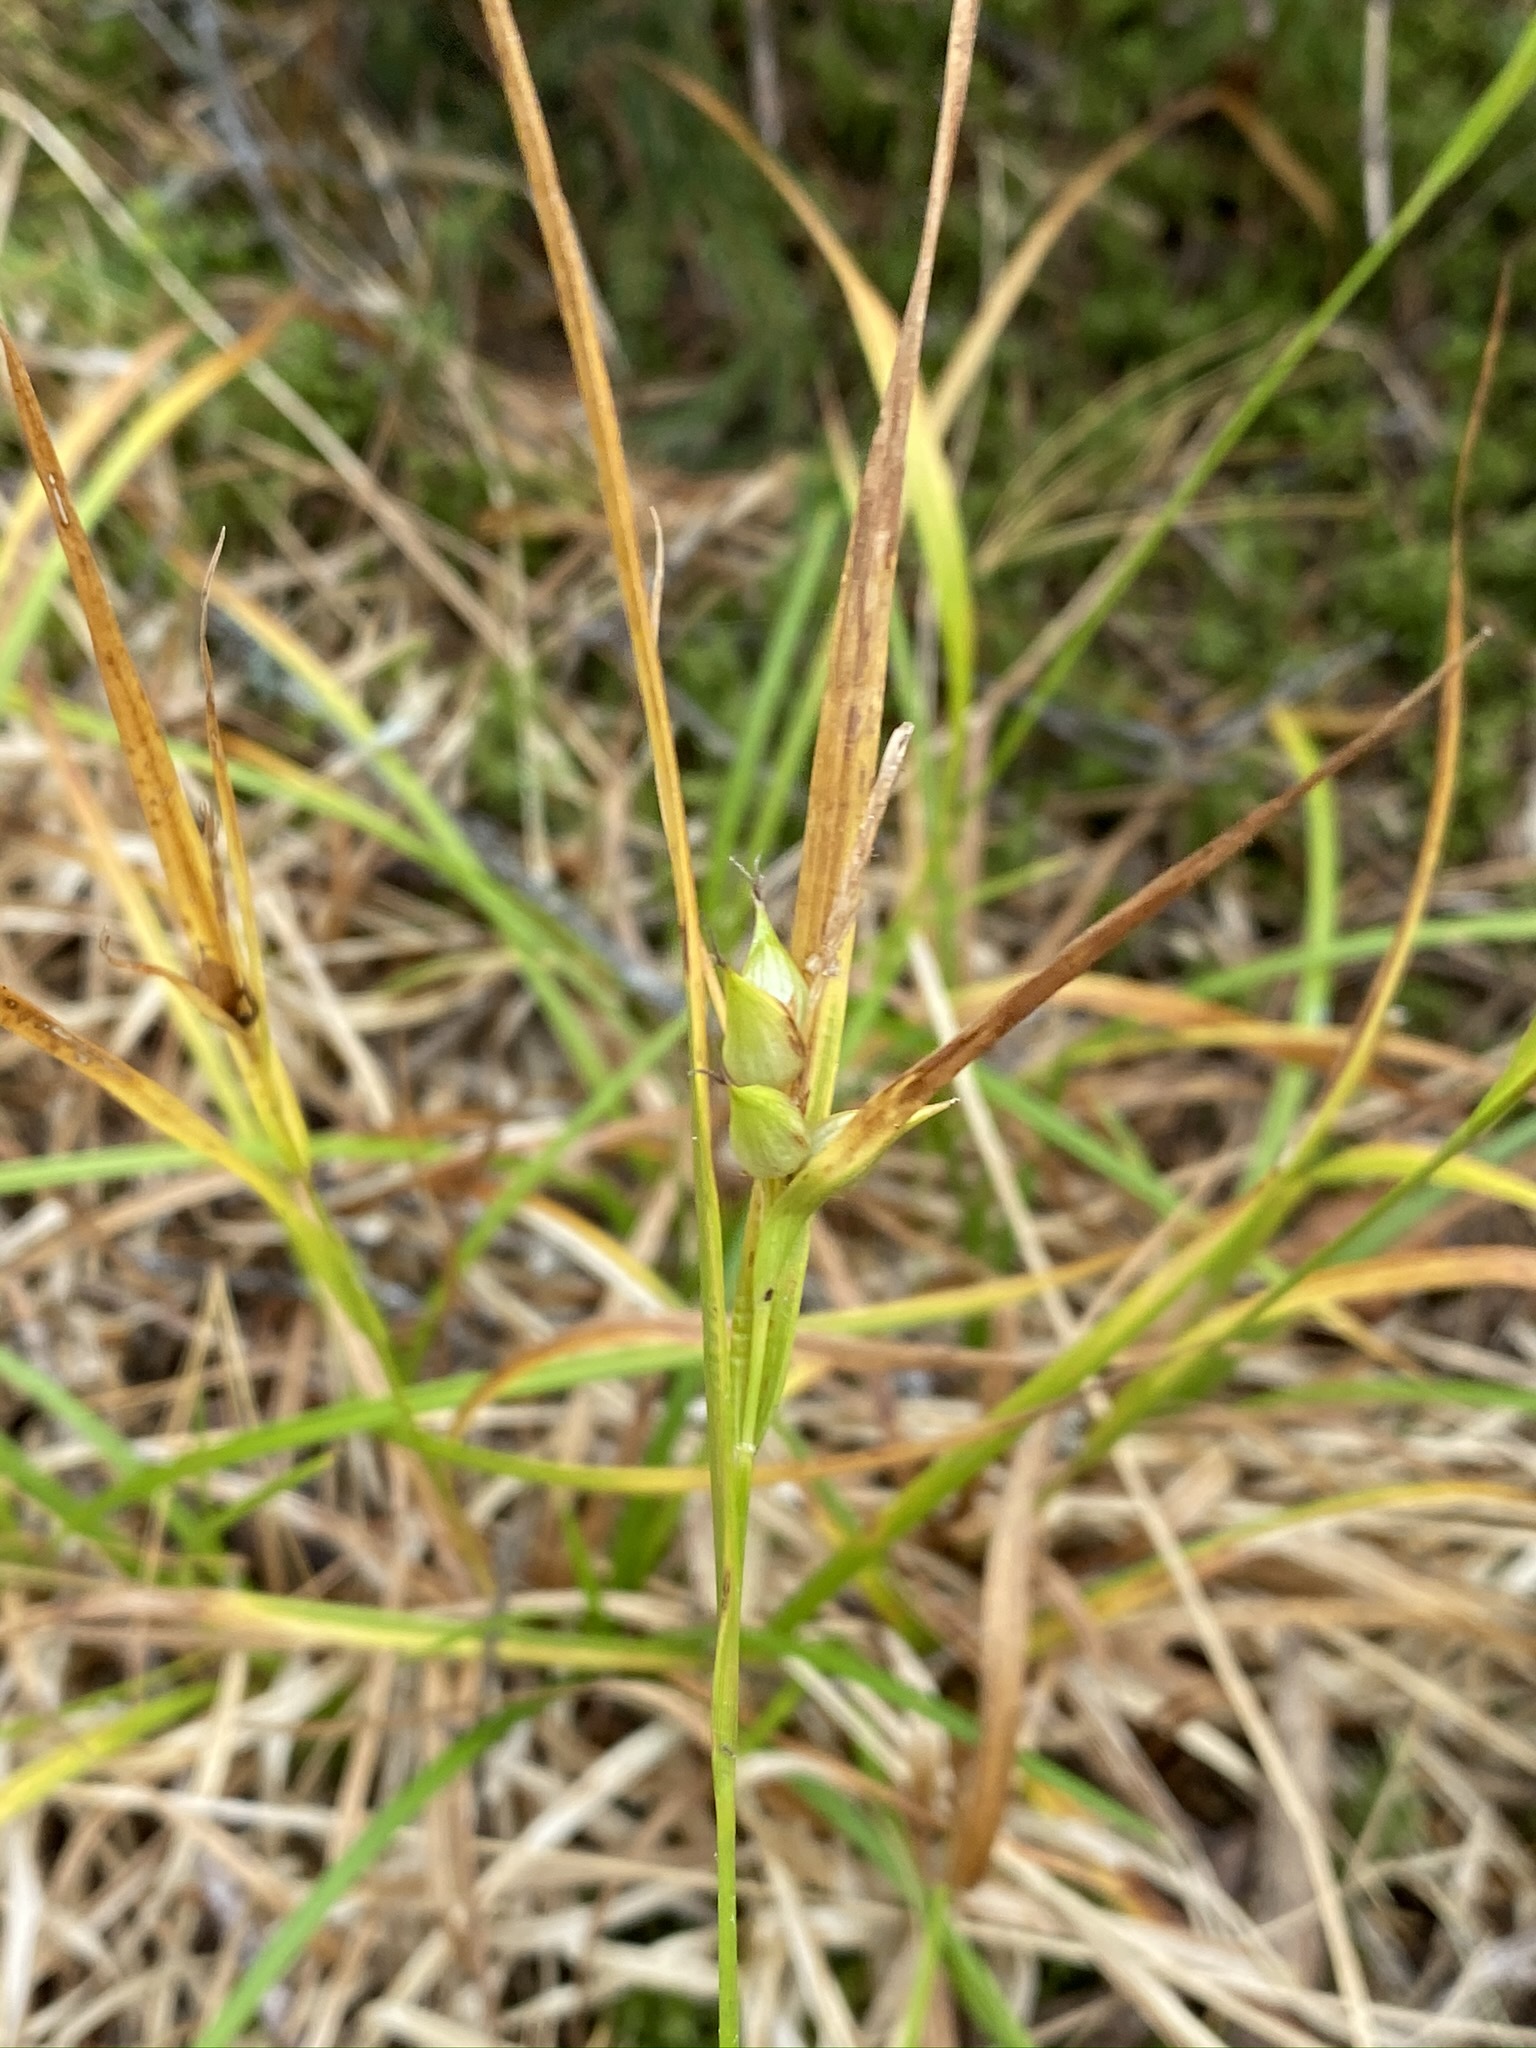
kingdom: Plantae
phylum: Tracheophyta
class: Liliopsida
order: Poales
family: Cyperaceae
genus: Carex
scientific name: Carex intumescens
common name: Greater bladder sedge
